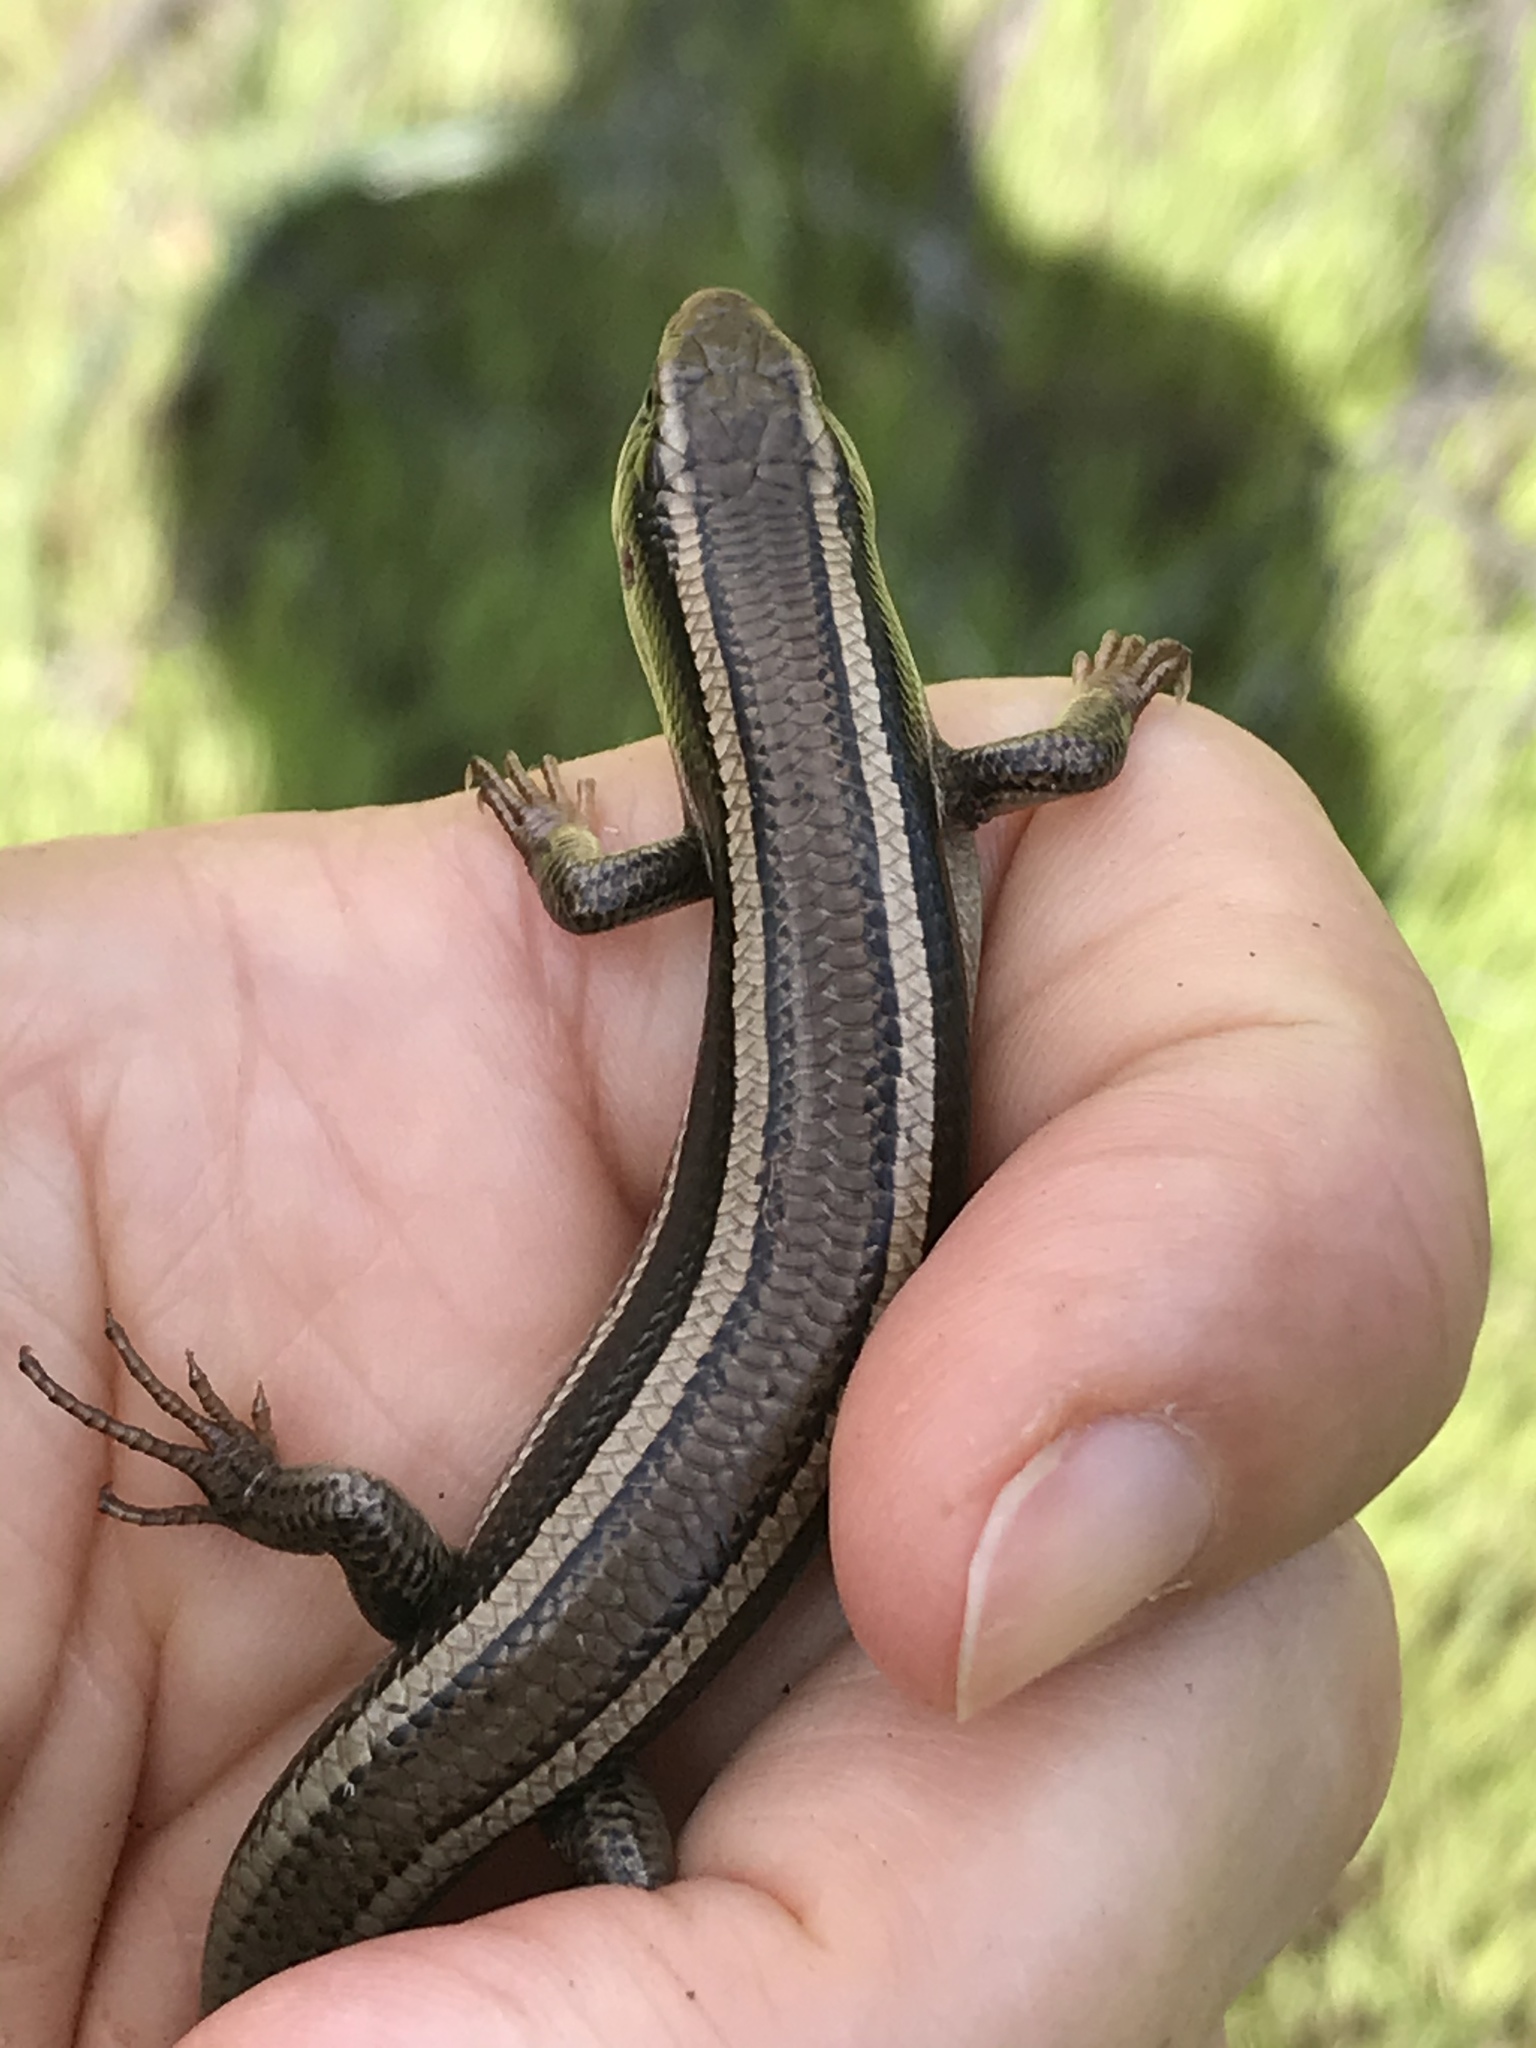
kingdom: Animalia
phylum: Chordata
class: Squamata
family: Scincidae
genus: Plestiodon
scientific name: Plestiodon skiltonianus
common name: Coronado island skink [interparietalis]
